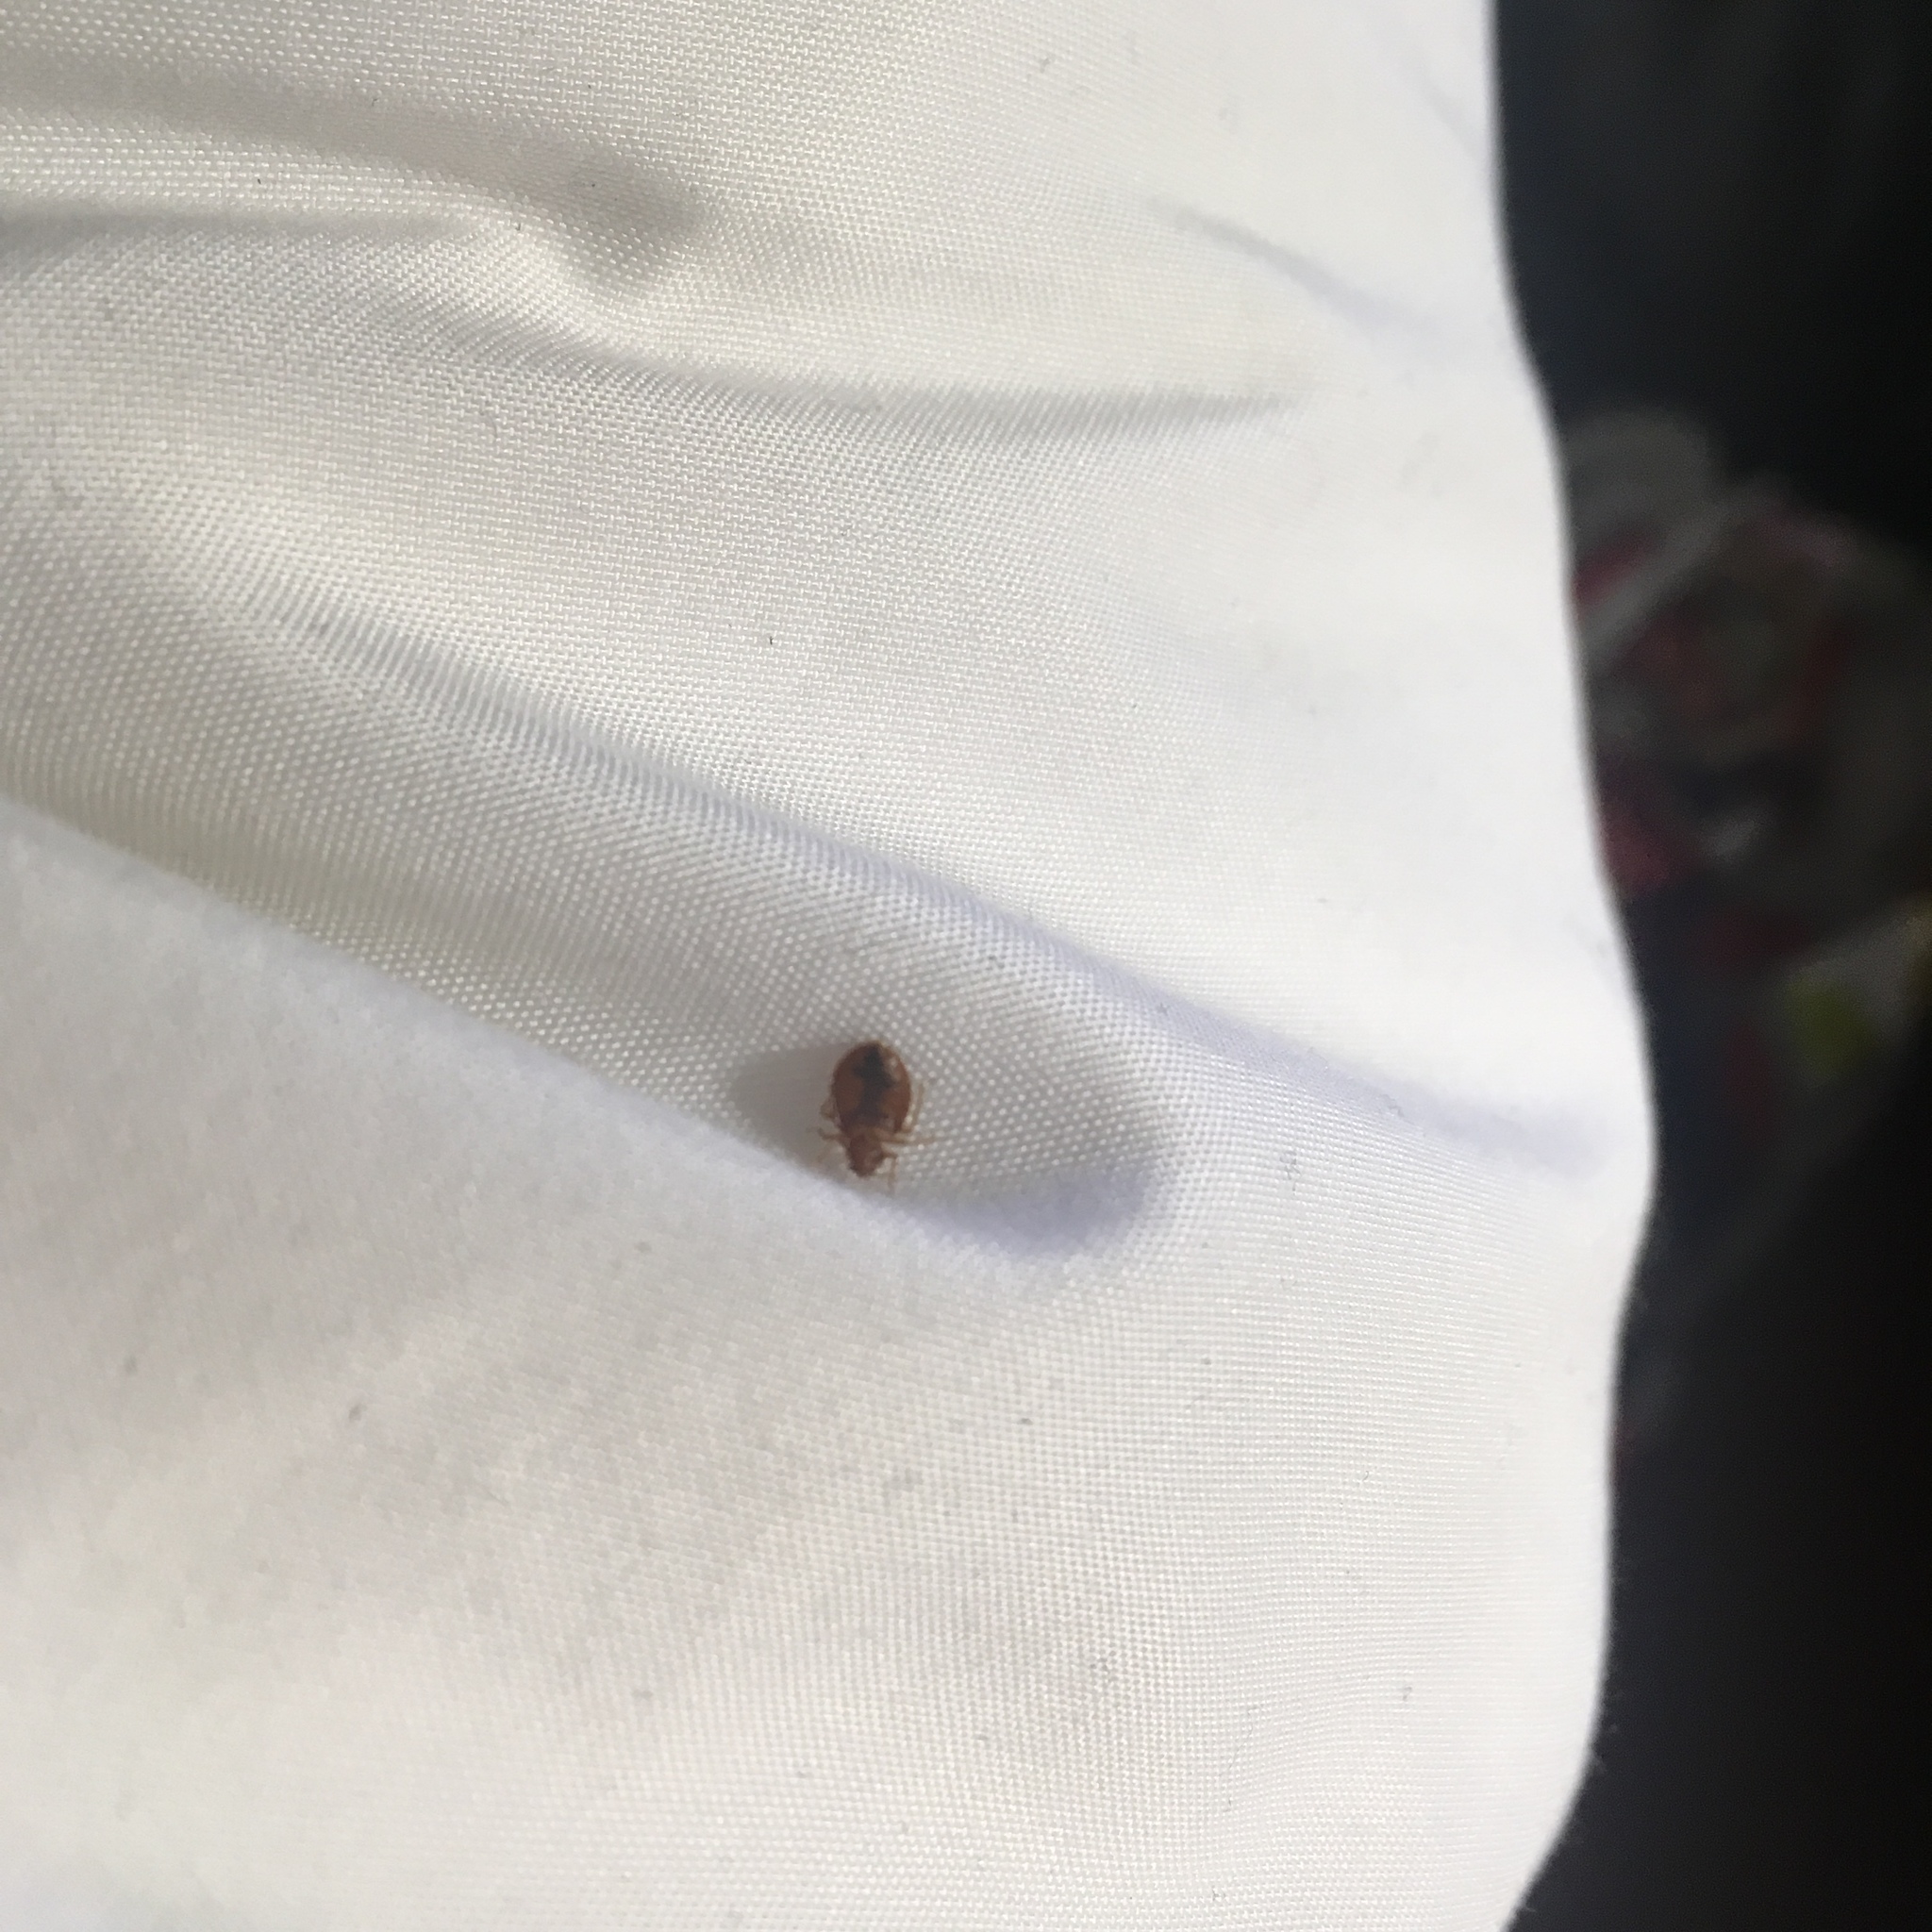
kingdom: Animalia
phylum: Arthropoda
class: Insecta
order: Hemiptera
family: Cimicidae
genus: Cimex
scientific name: Cimex lectularius
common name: Bed bug
